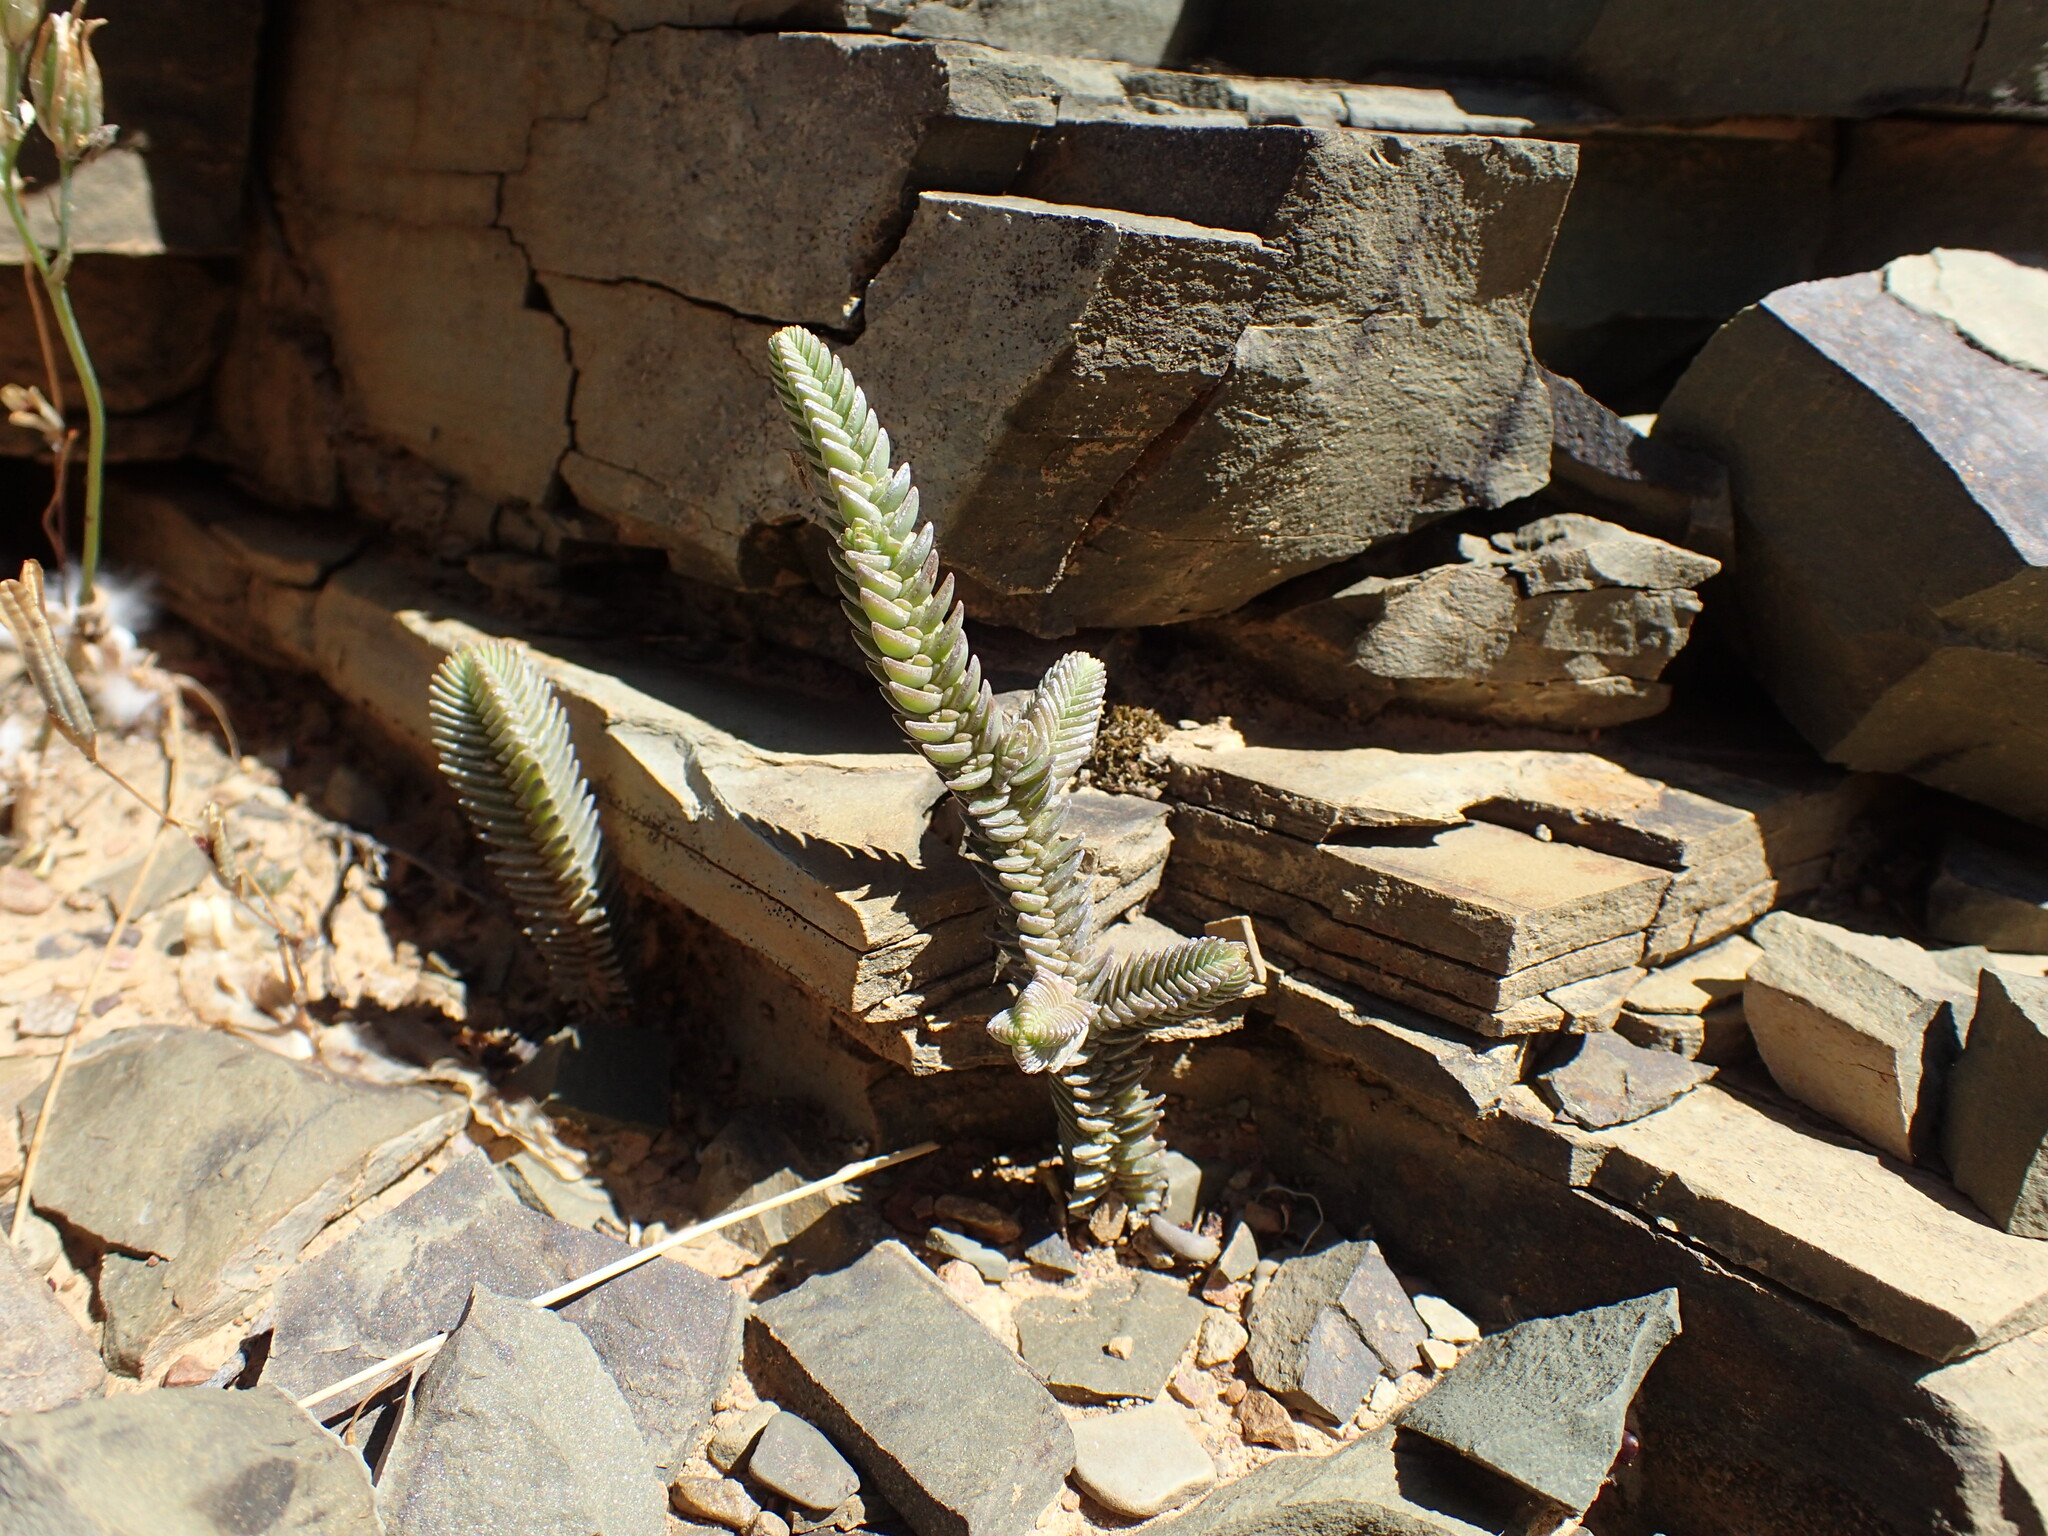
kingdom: Plantae
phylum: Tracheophyta
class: Magnoliopsida
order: Saxifragales
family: Crassulaceae
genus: Crassula
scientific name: Crassula muscosa
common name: Toy-cypress
